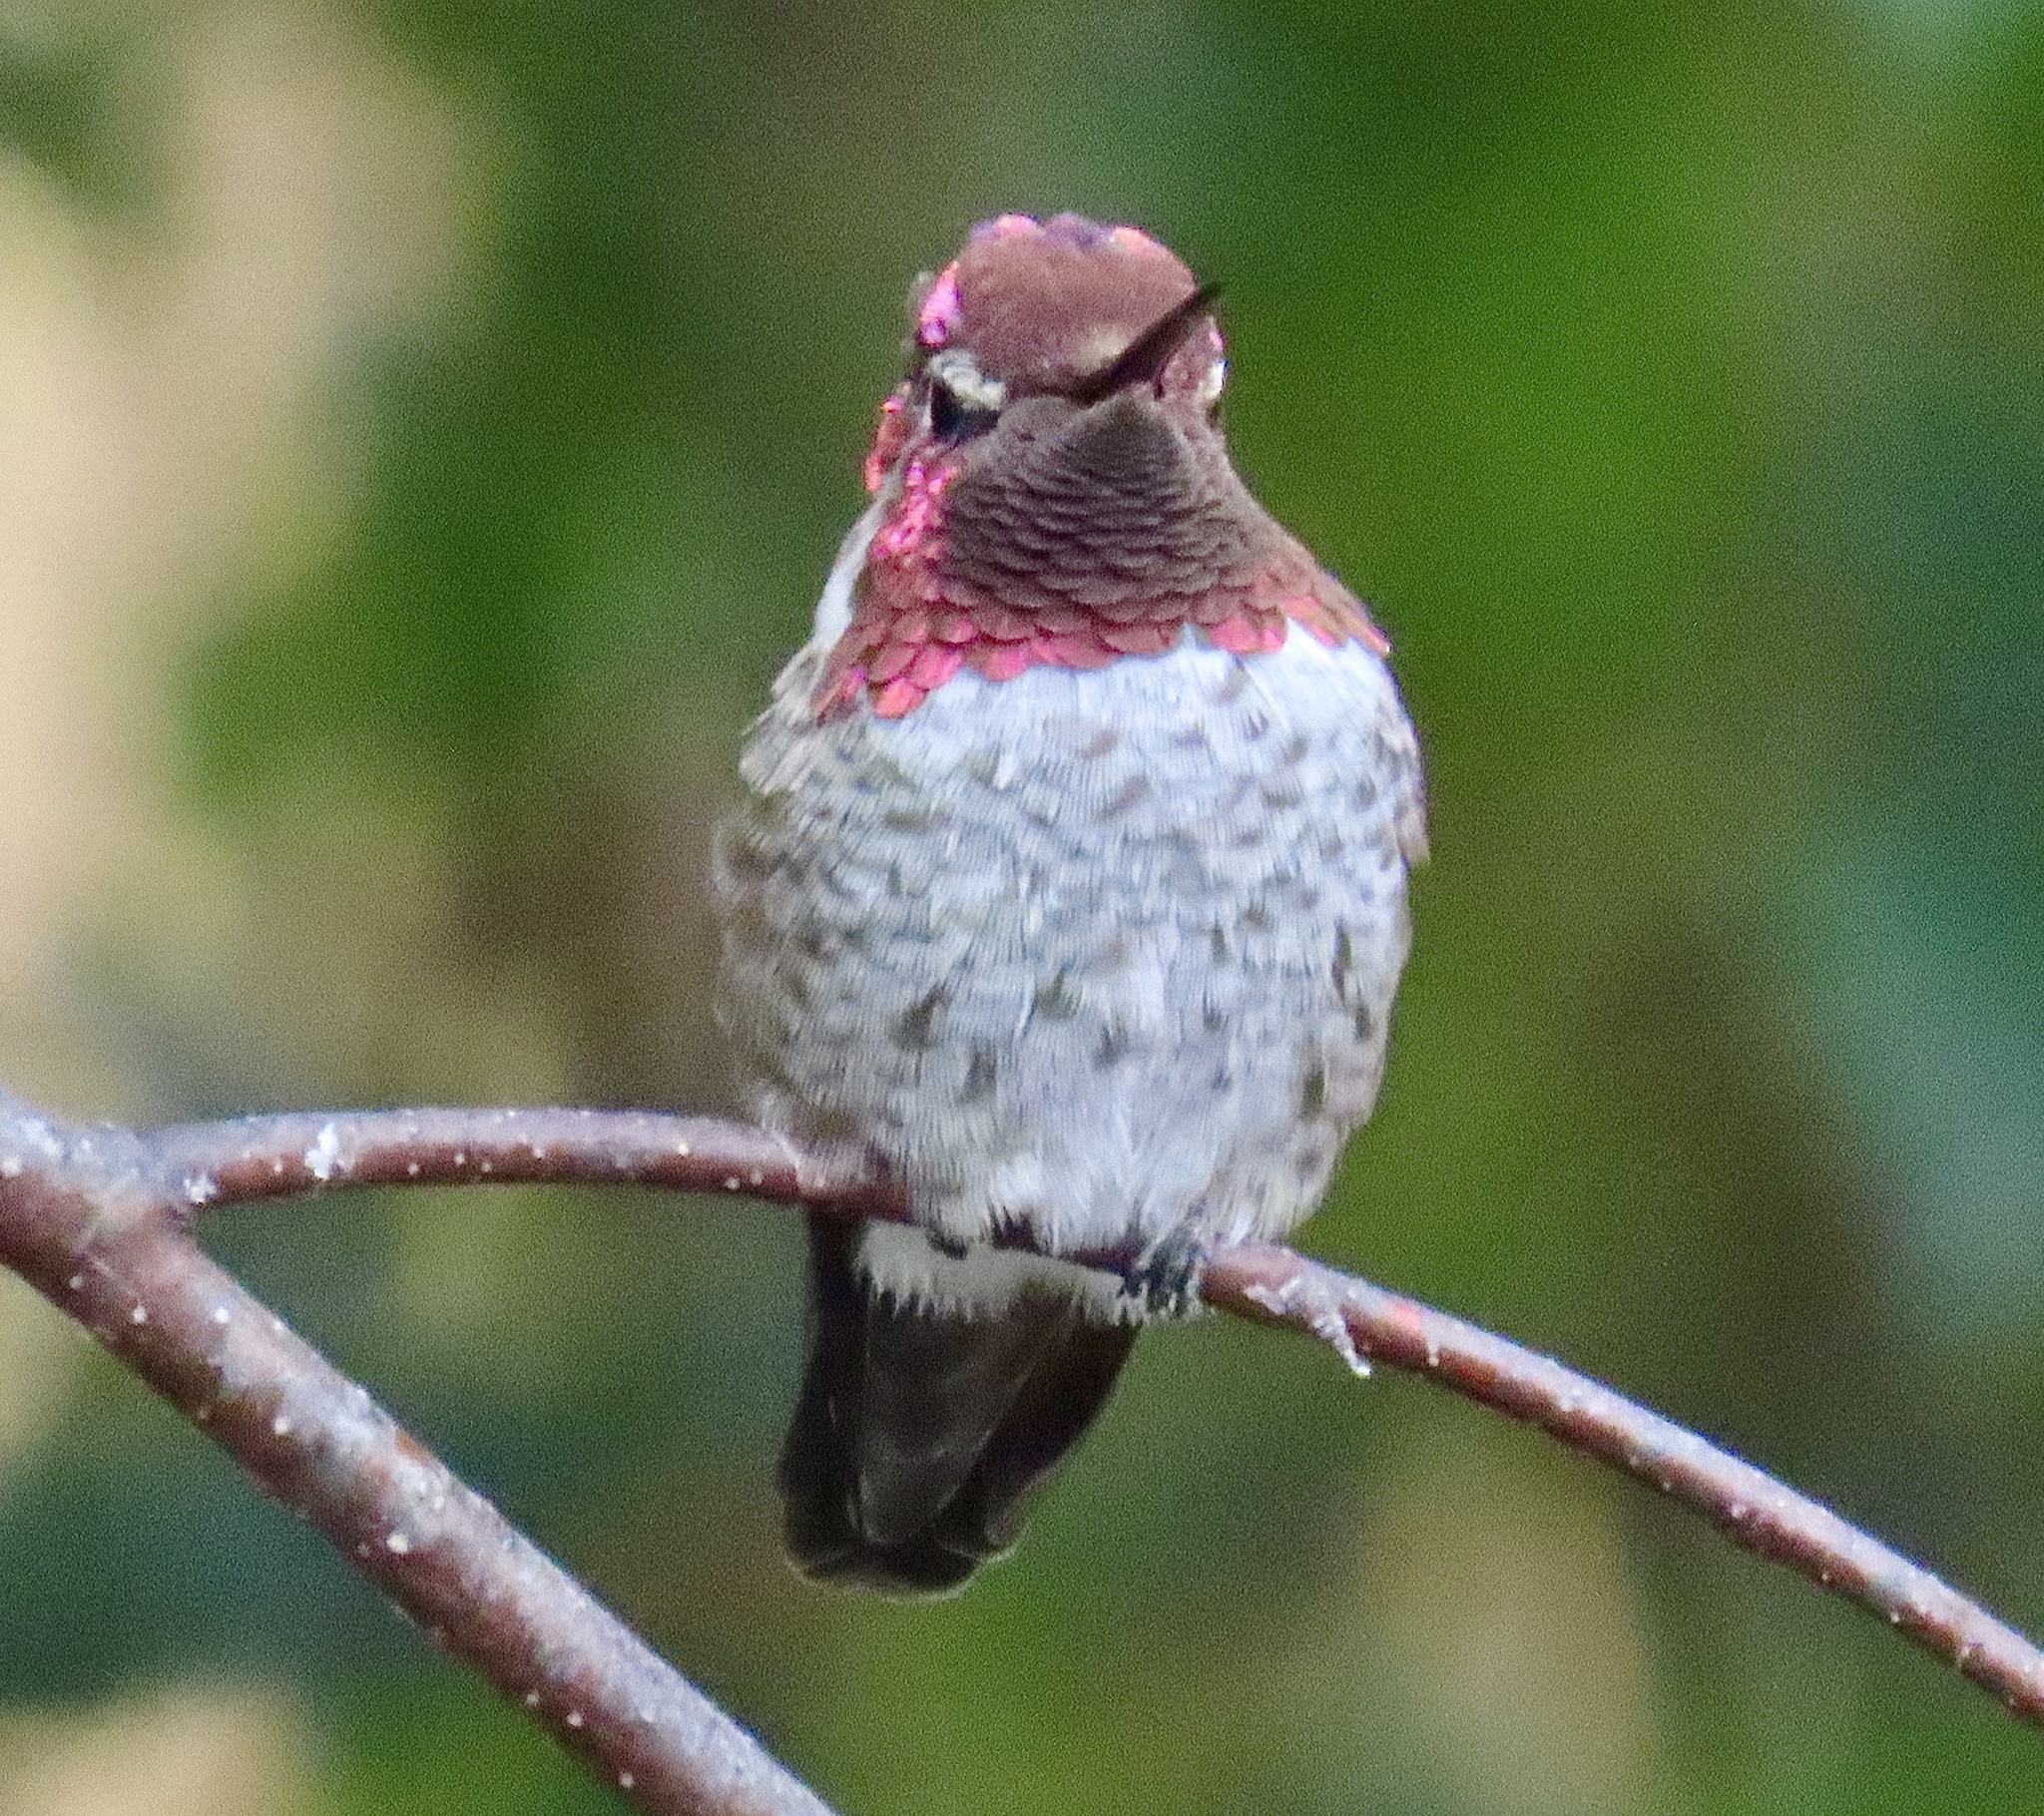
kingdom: Animalia
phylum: Chordata
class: Aves
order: Apodiformes
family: Trochilidae
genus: Calypte
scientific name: Calypte anna
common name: Anna's hummingbird
